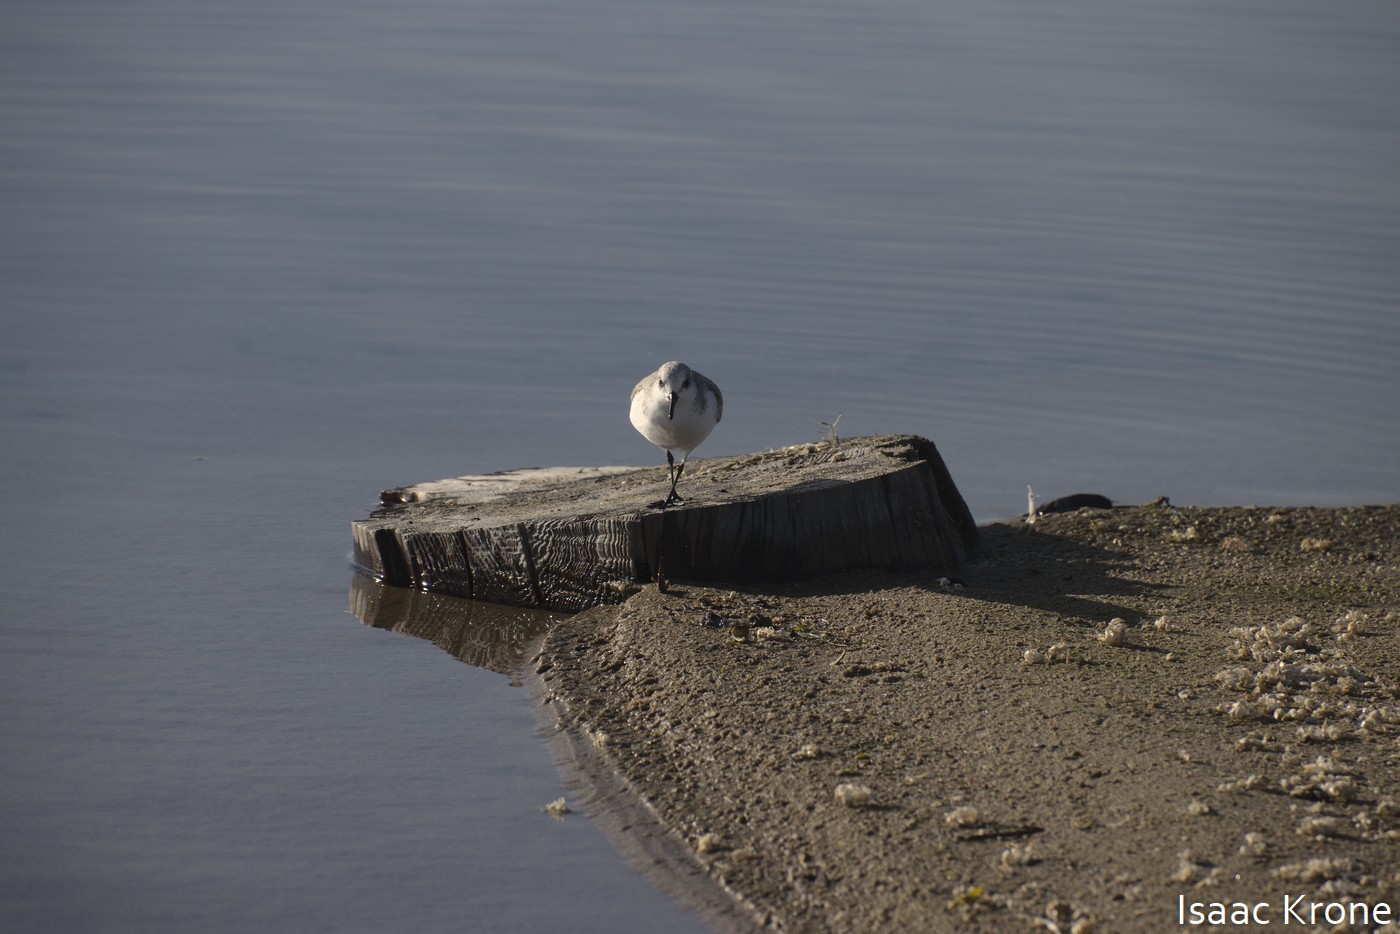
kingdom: Animalia
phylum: Chordata
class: Aves
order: Charadriiformes
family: Scolopacidae
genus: Calidris
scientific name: Calidris alba
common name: Sanderling
